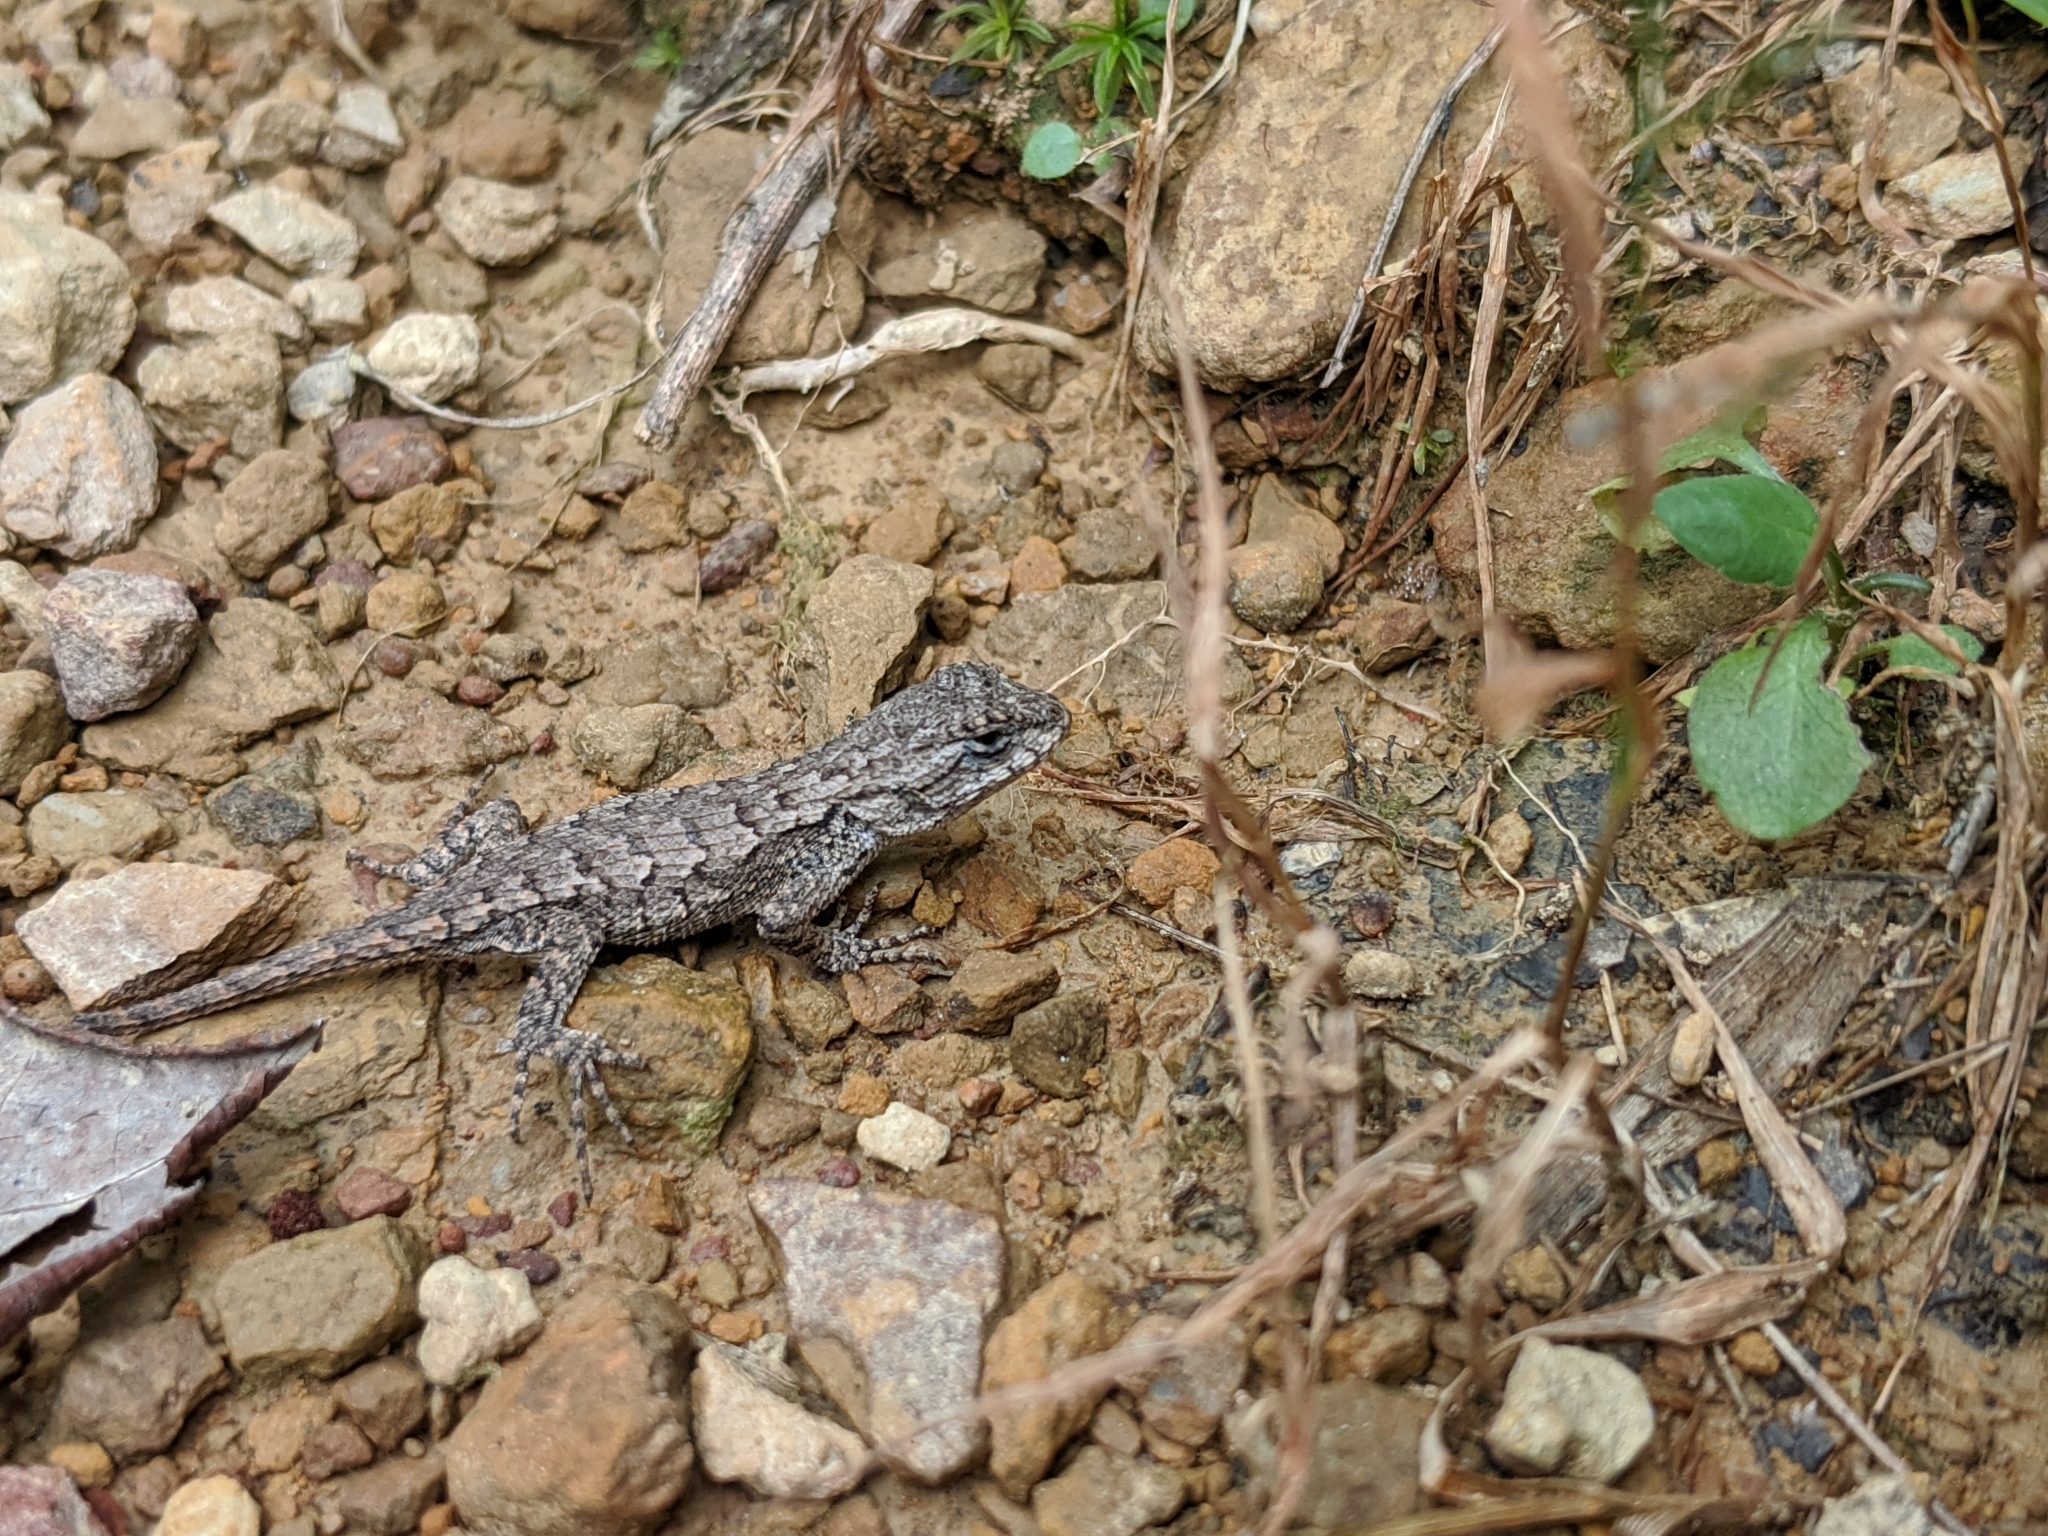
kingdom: Animalia
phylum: Chordata
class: Squamata
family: Phrynosomatidae
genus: Sceloporus
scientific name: Sceloporus undulatus
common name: Eastern fence lizard
